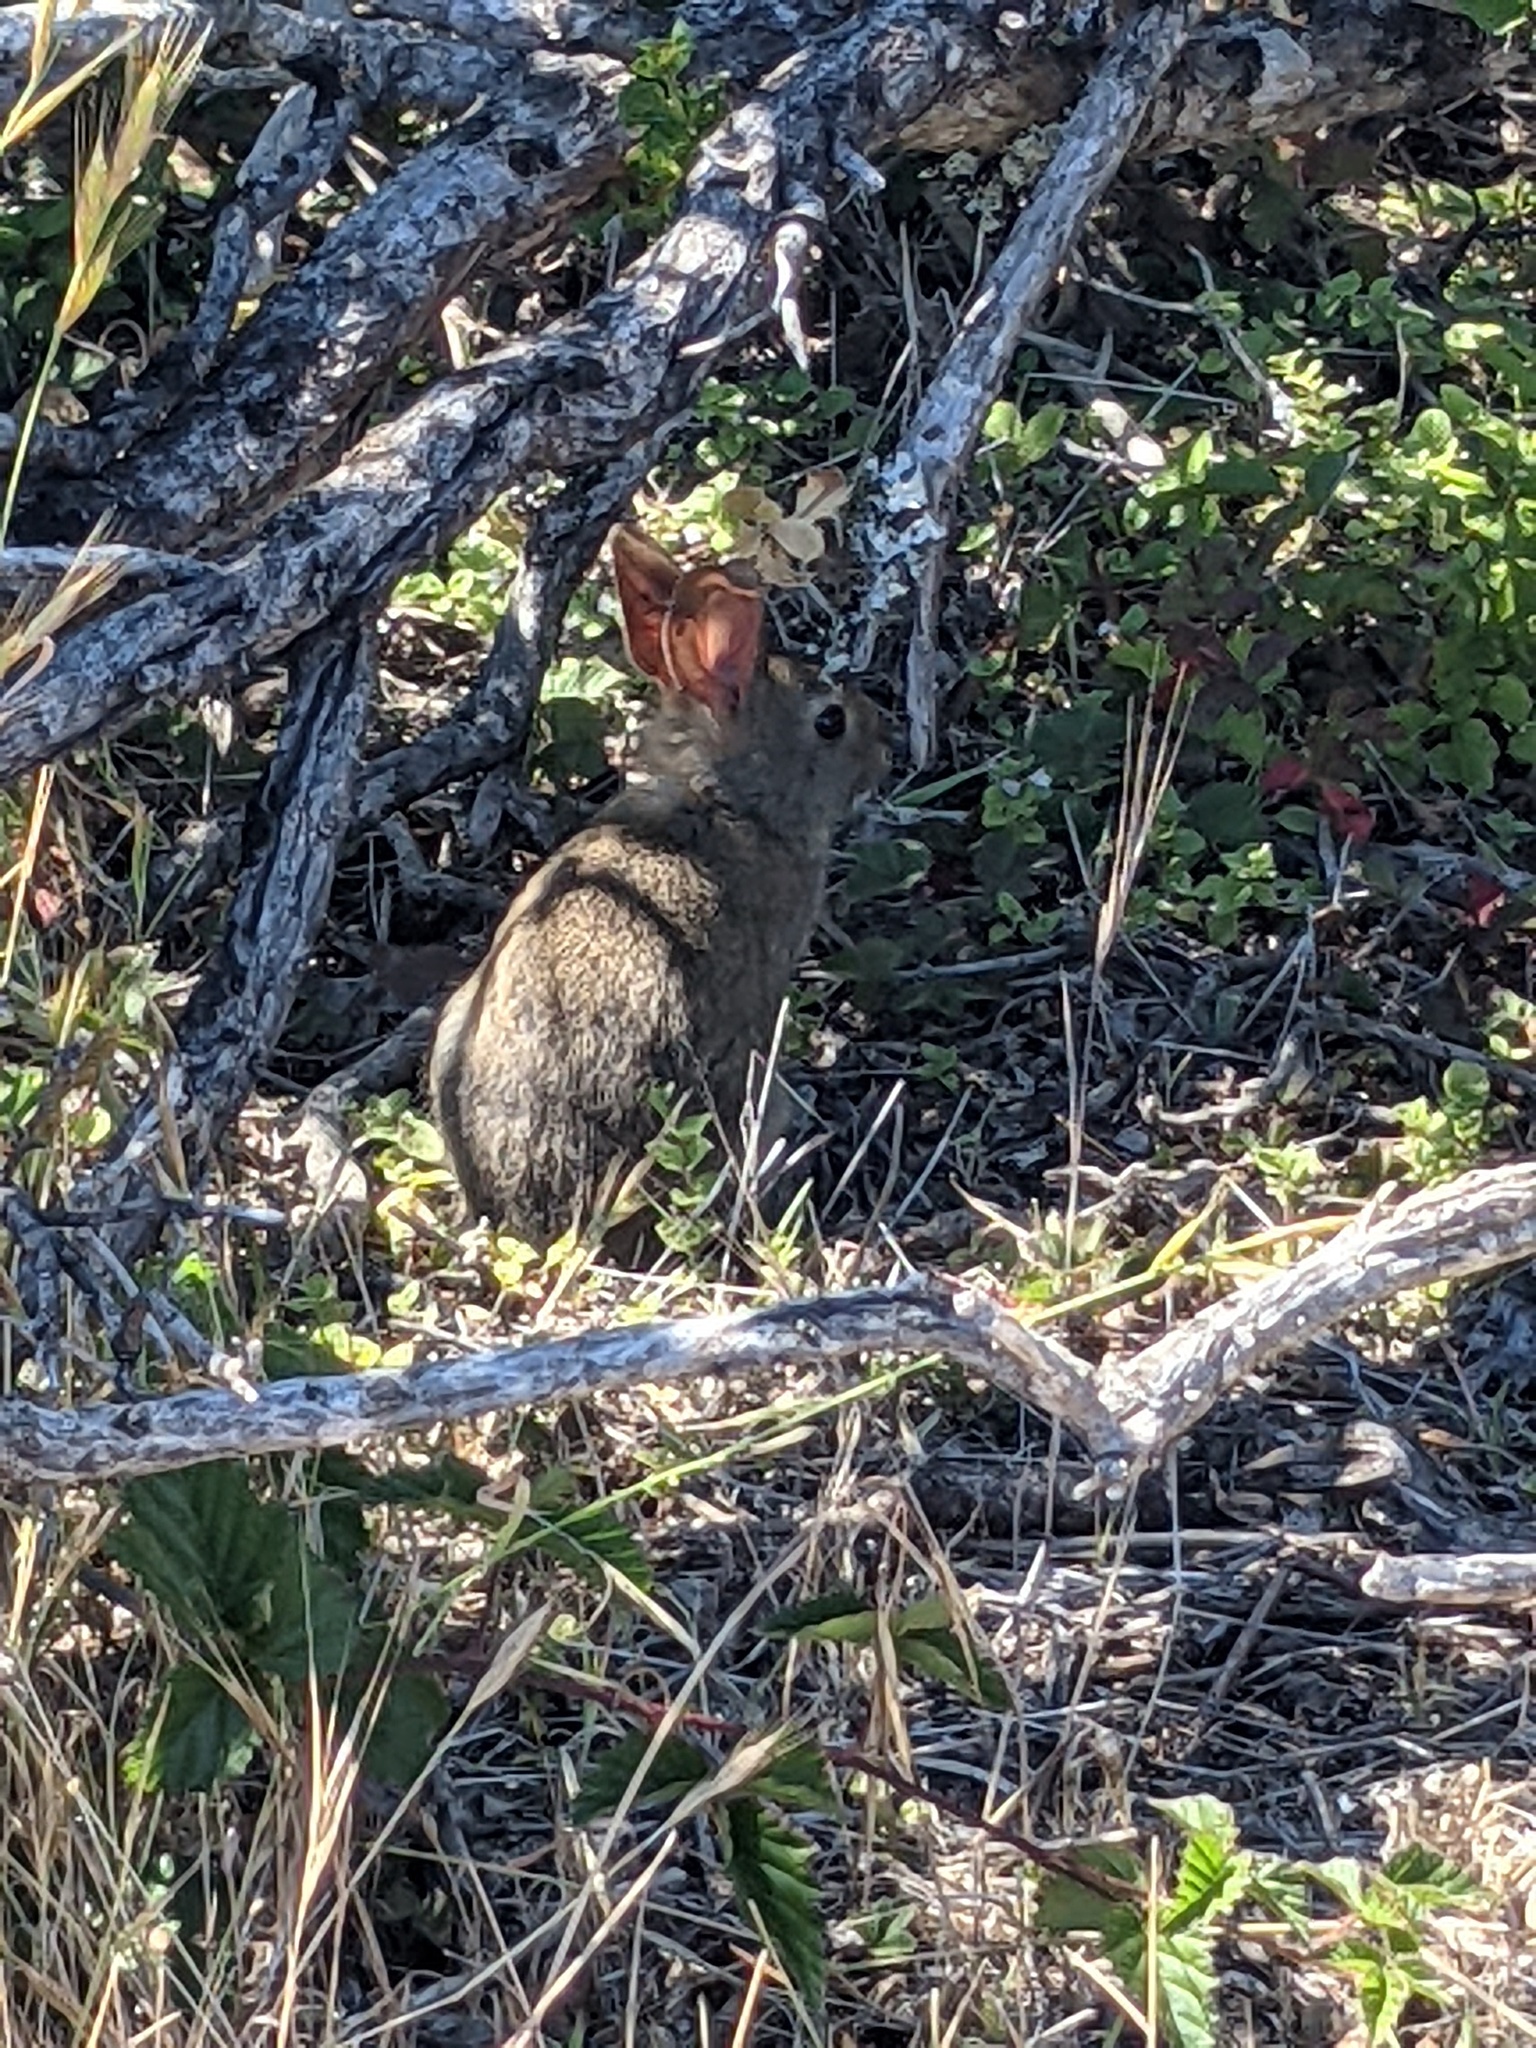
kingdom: Animalia
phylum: Chordata
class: Mammalia
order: Lagomorpha
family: Leporidae
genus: Sylvilagus
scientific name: Sylvilagus bachmani
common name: Brush rabbit
